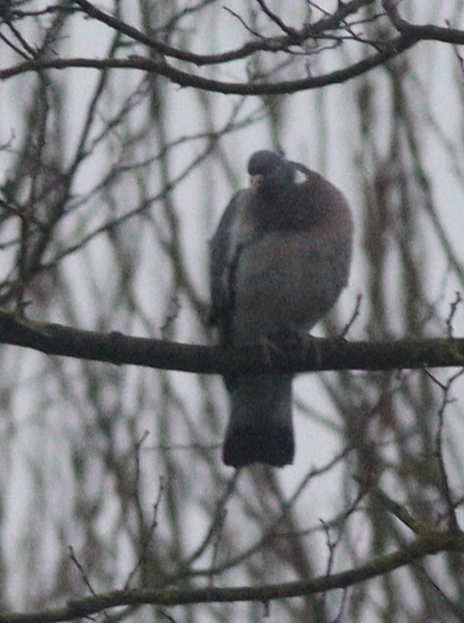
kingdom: Animalia
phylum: Chordata
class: Aves
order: Columbiformes
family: Columbidae
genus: Columba
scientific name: Columba palumbus
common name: Common wood pigeon
